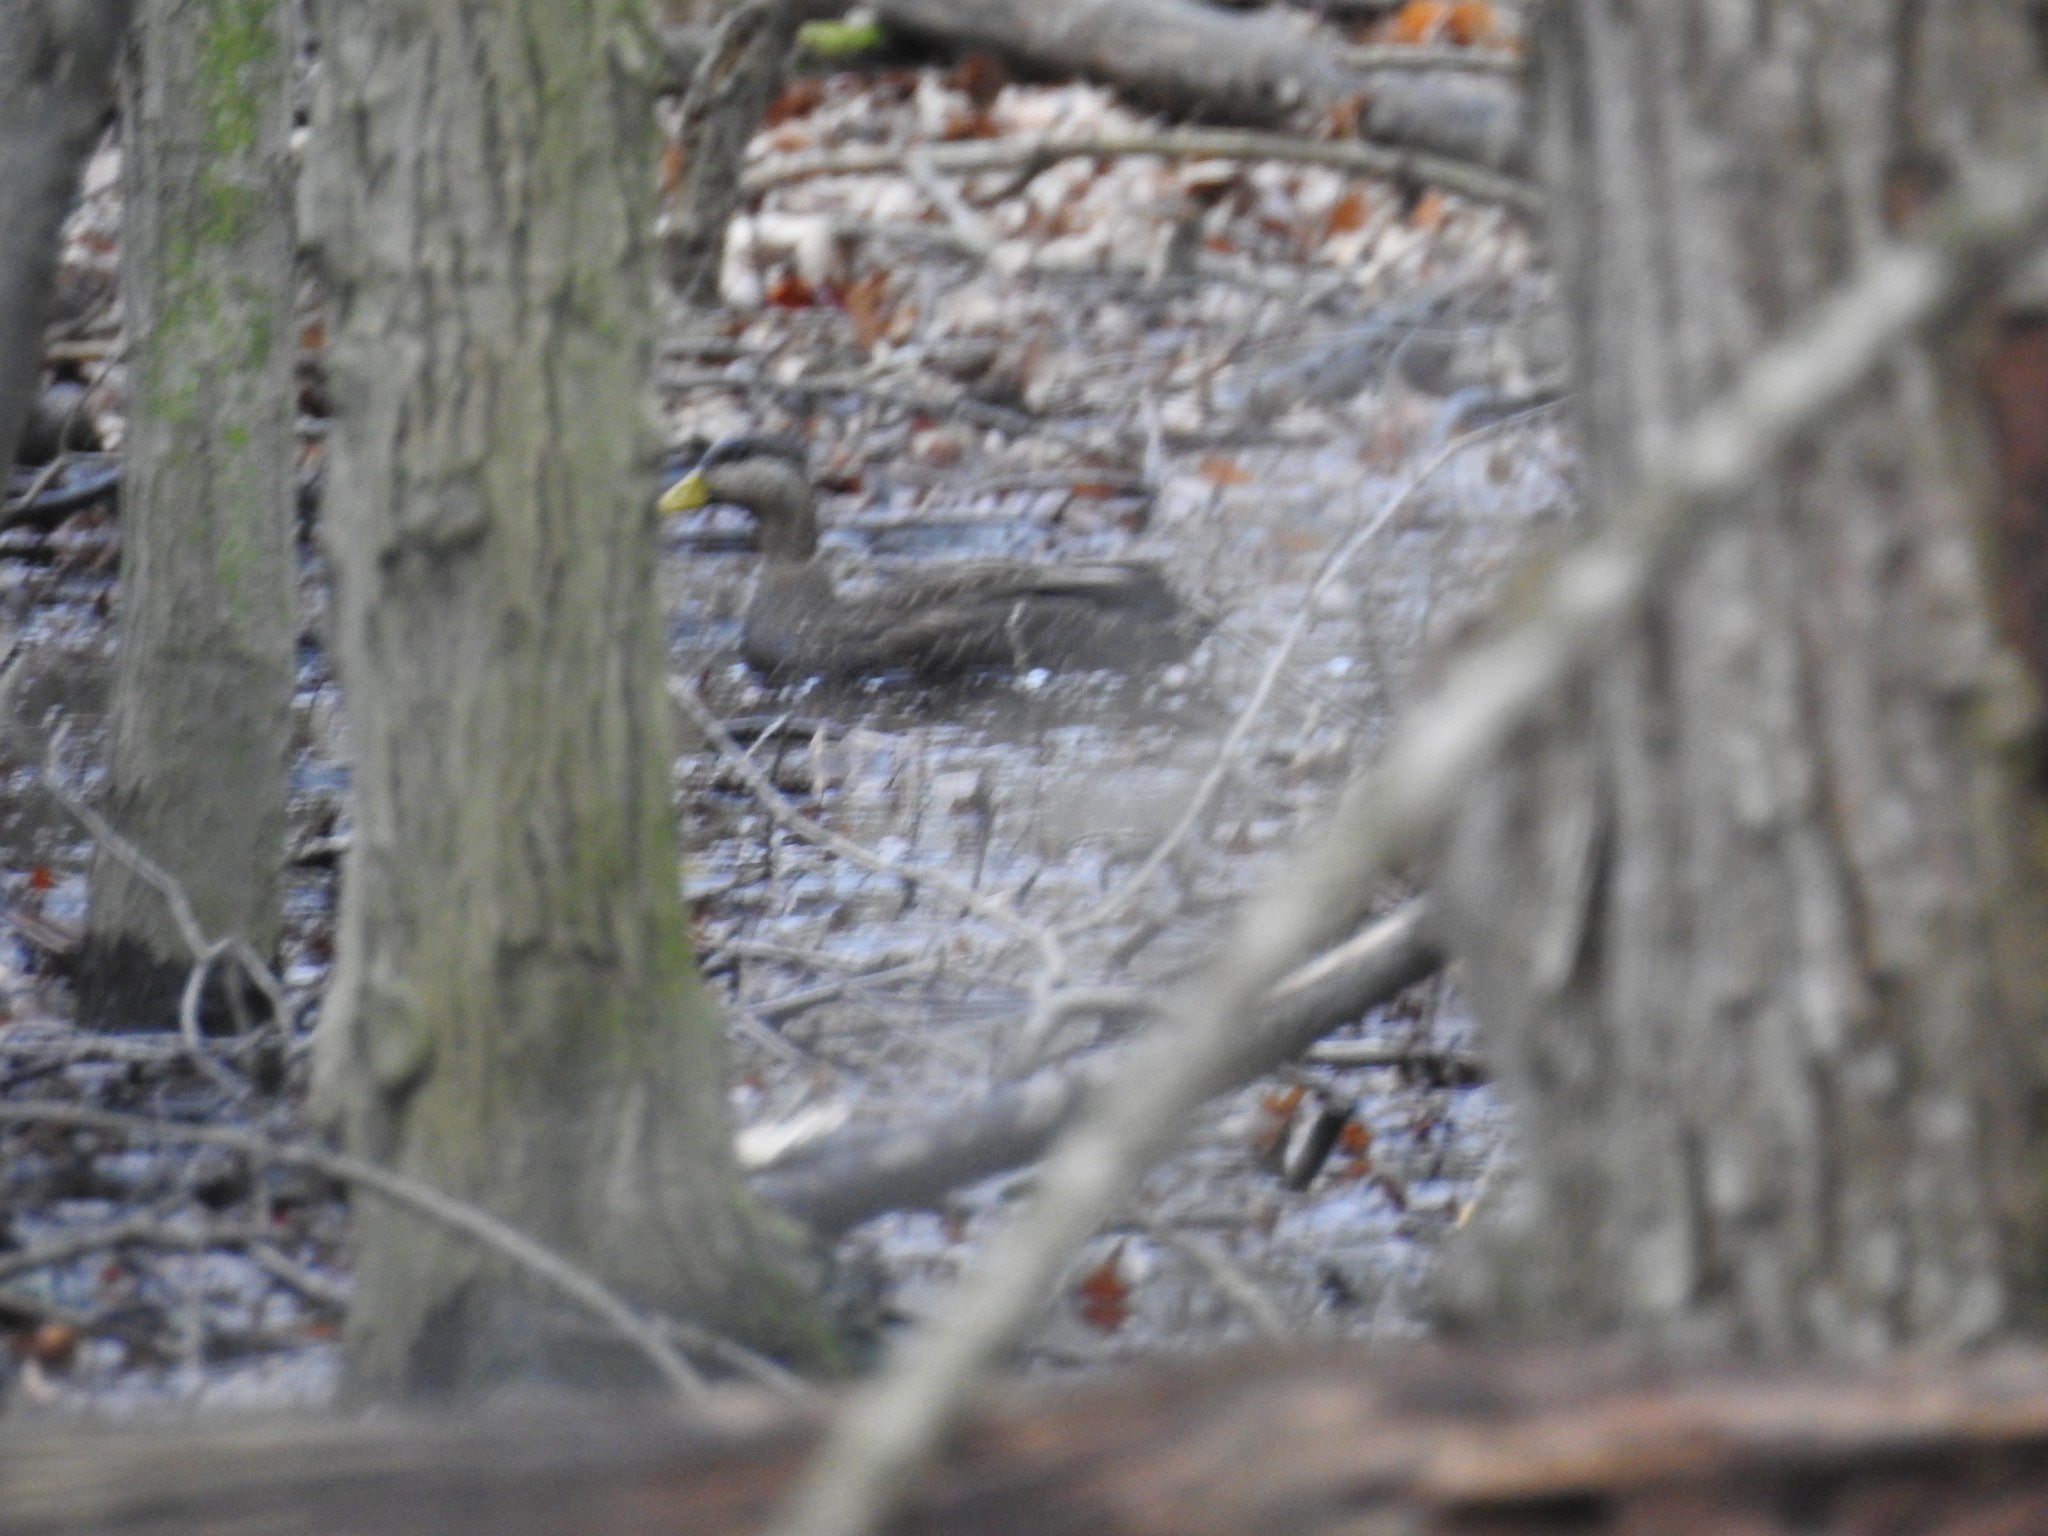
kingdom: Animalia
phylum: Chordata
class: Aves
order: Anseriformes
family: Anatidae
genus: Anas
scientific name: Anas rubripes
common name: American black duck
